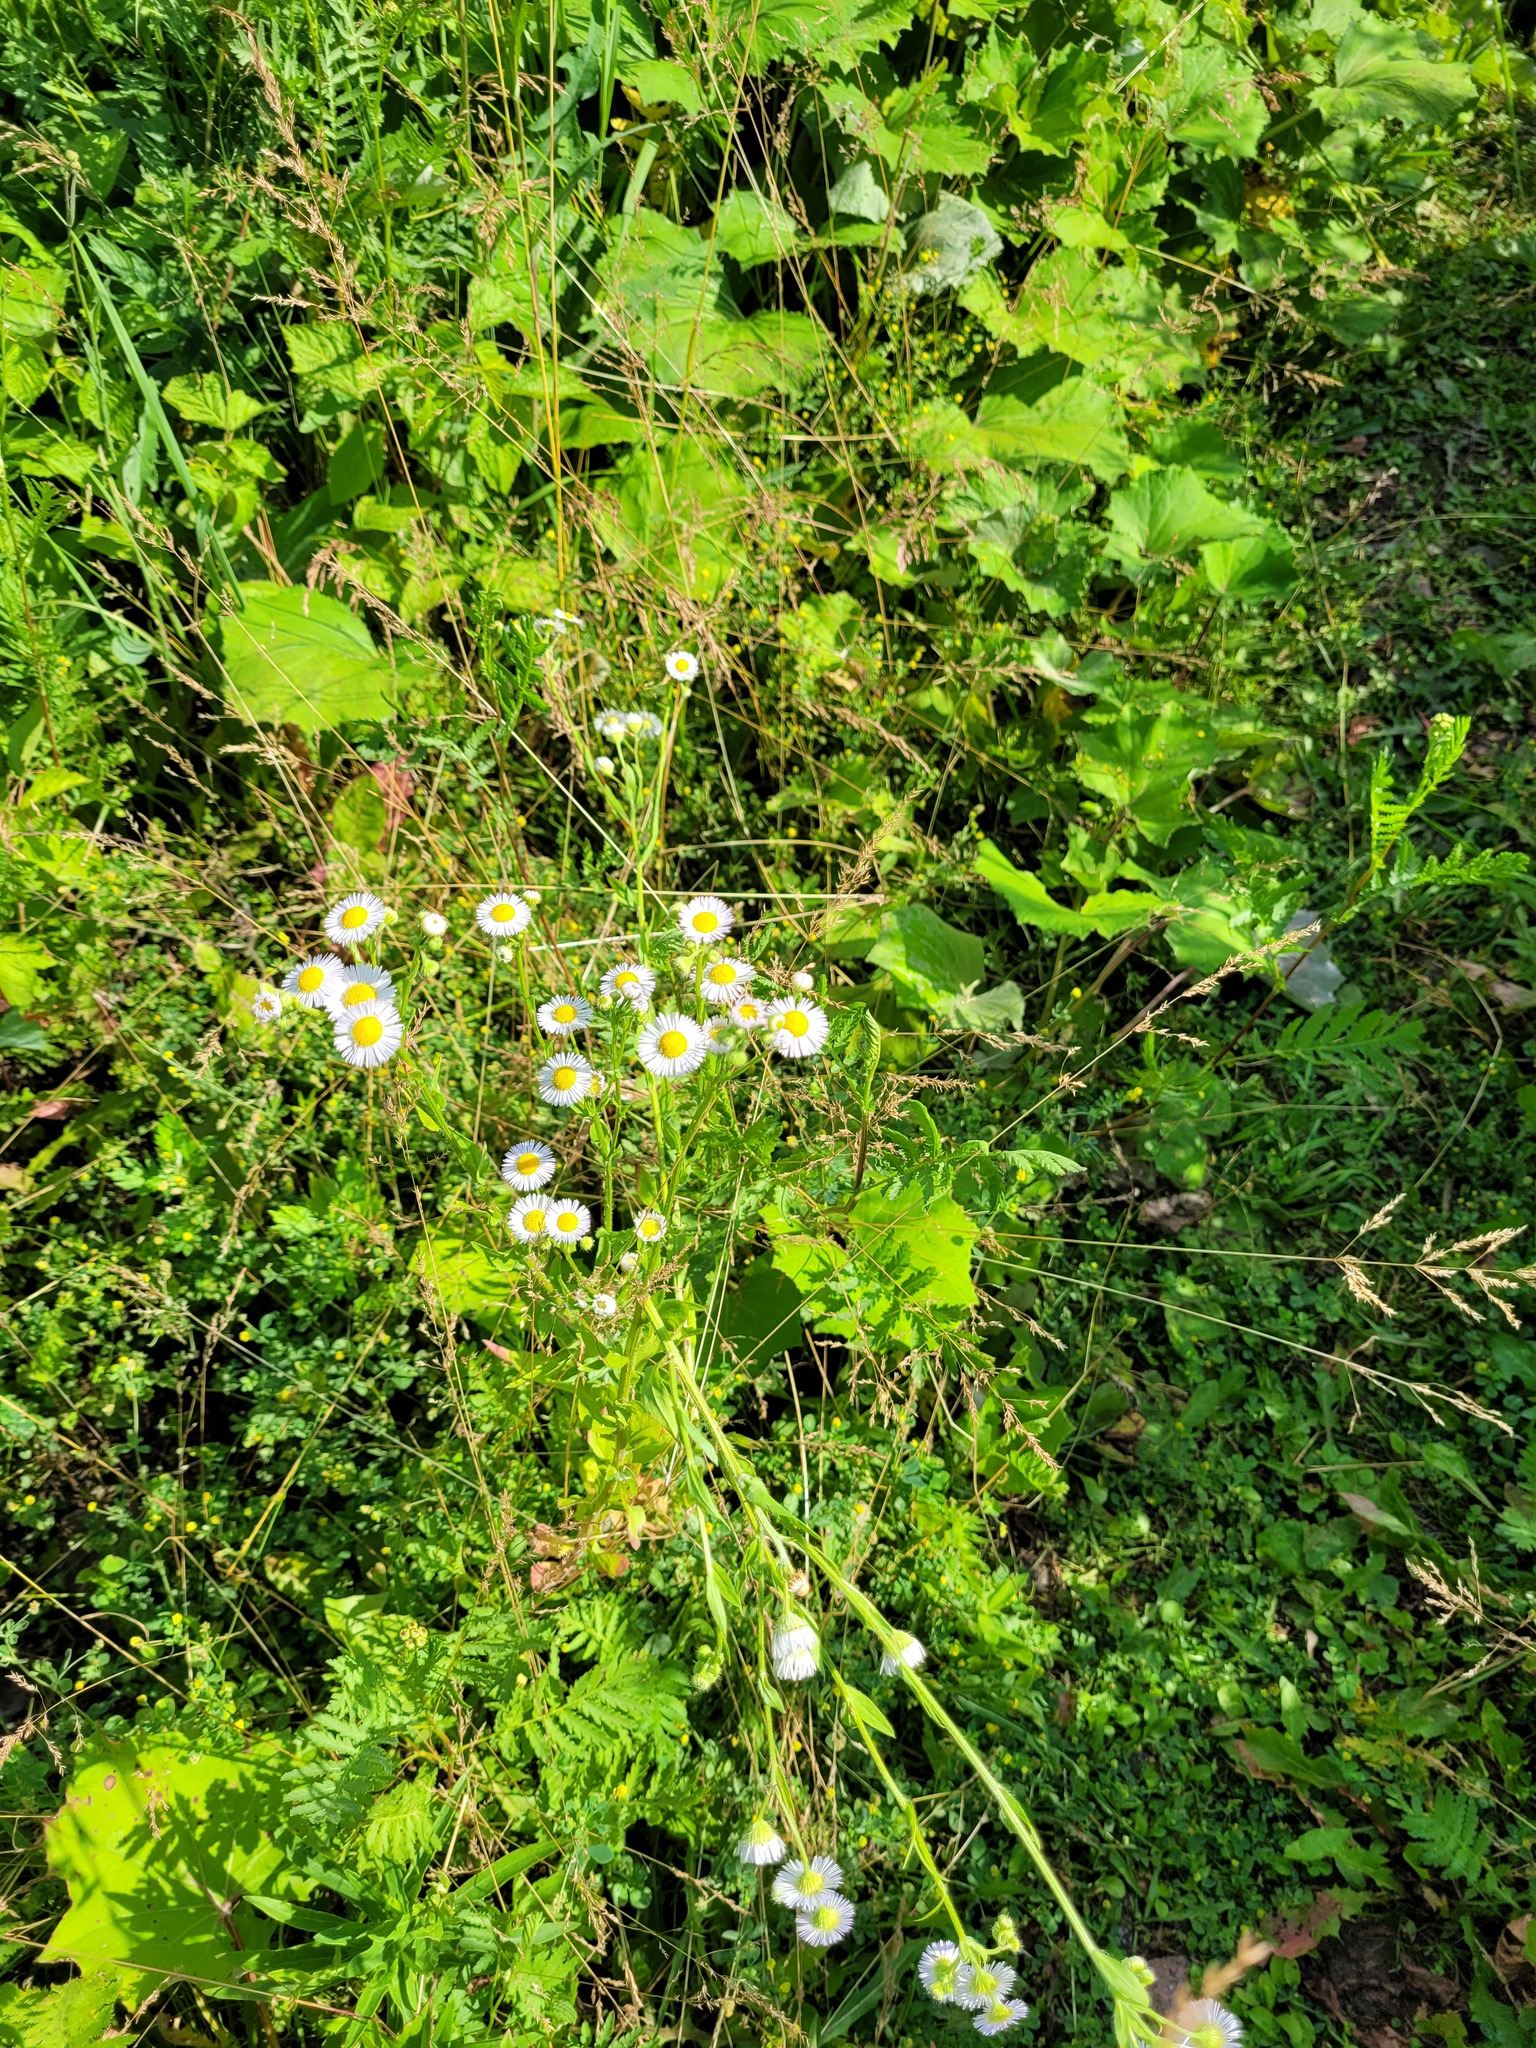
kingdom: Plantae
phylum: Tracheophyta
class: Magnoliopsida
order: Asterales
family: Asteraceae
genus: Erigeron
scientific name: Erigeron annuus
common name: Tall fleabane
